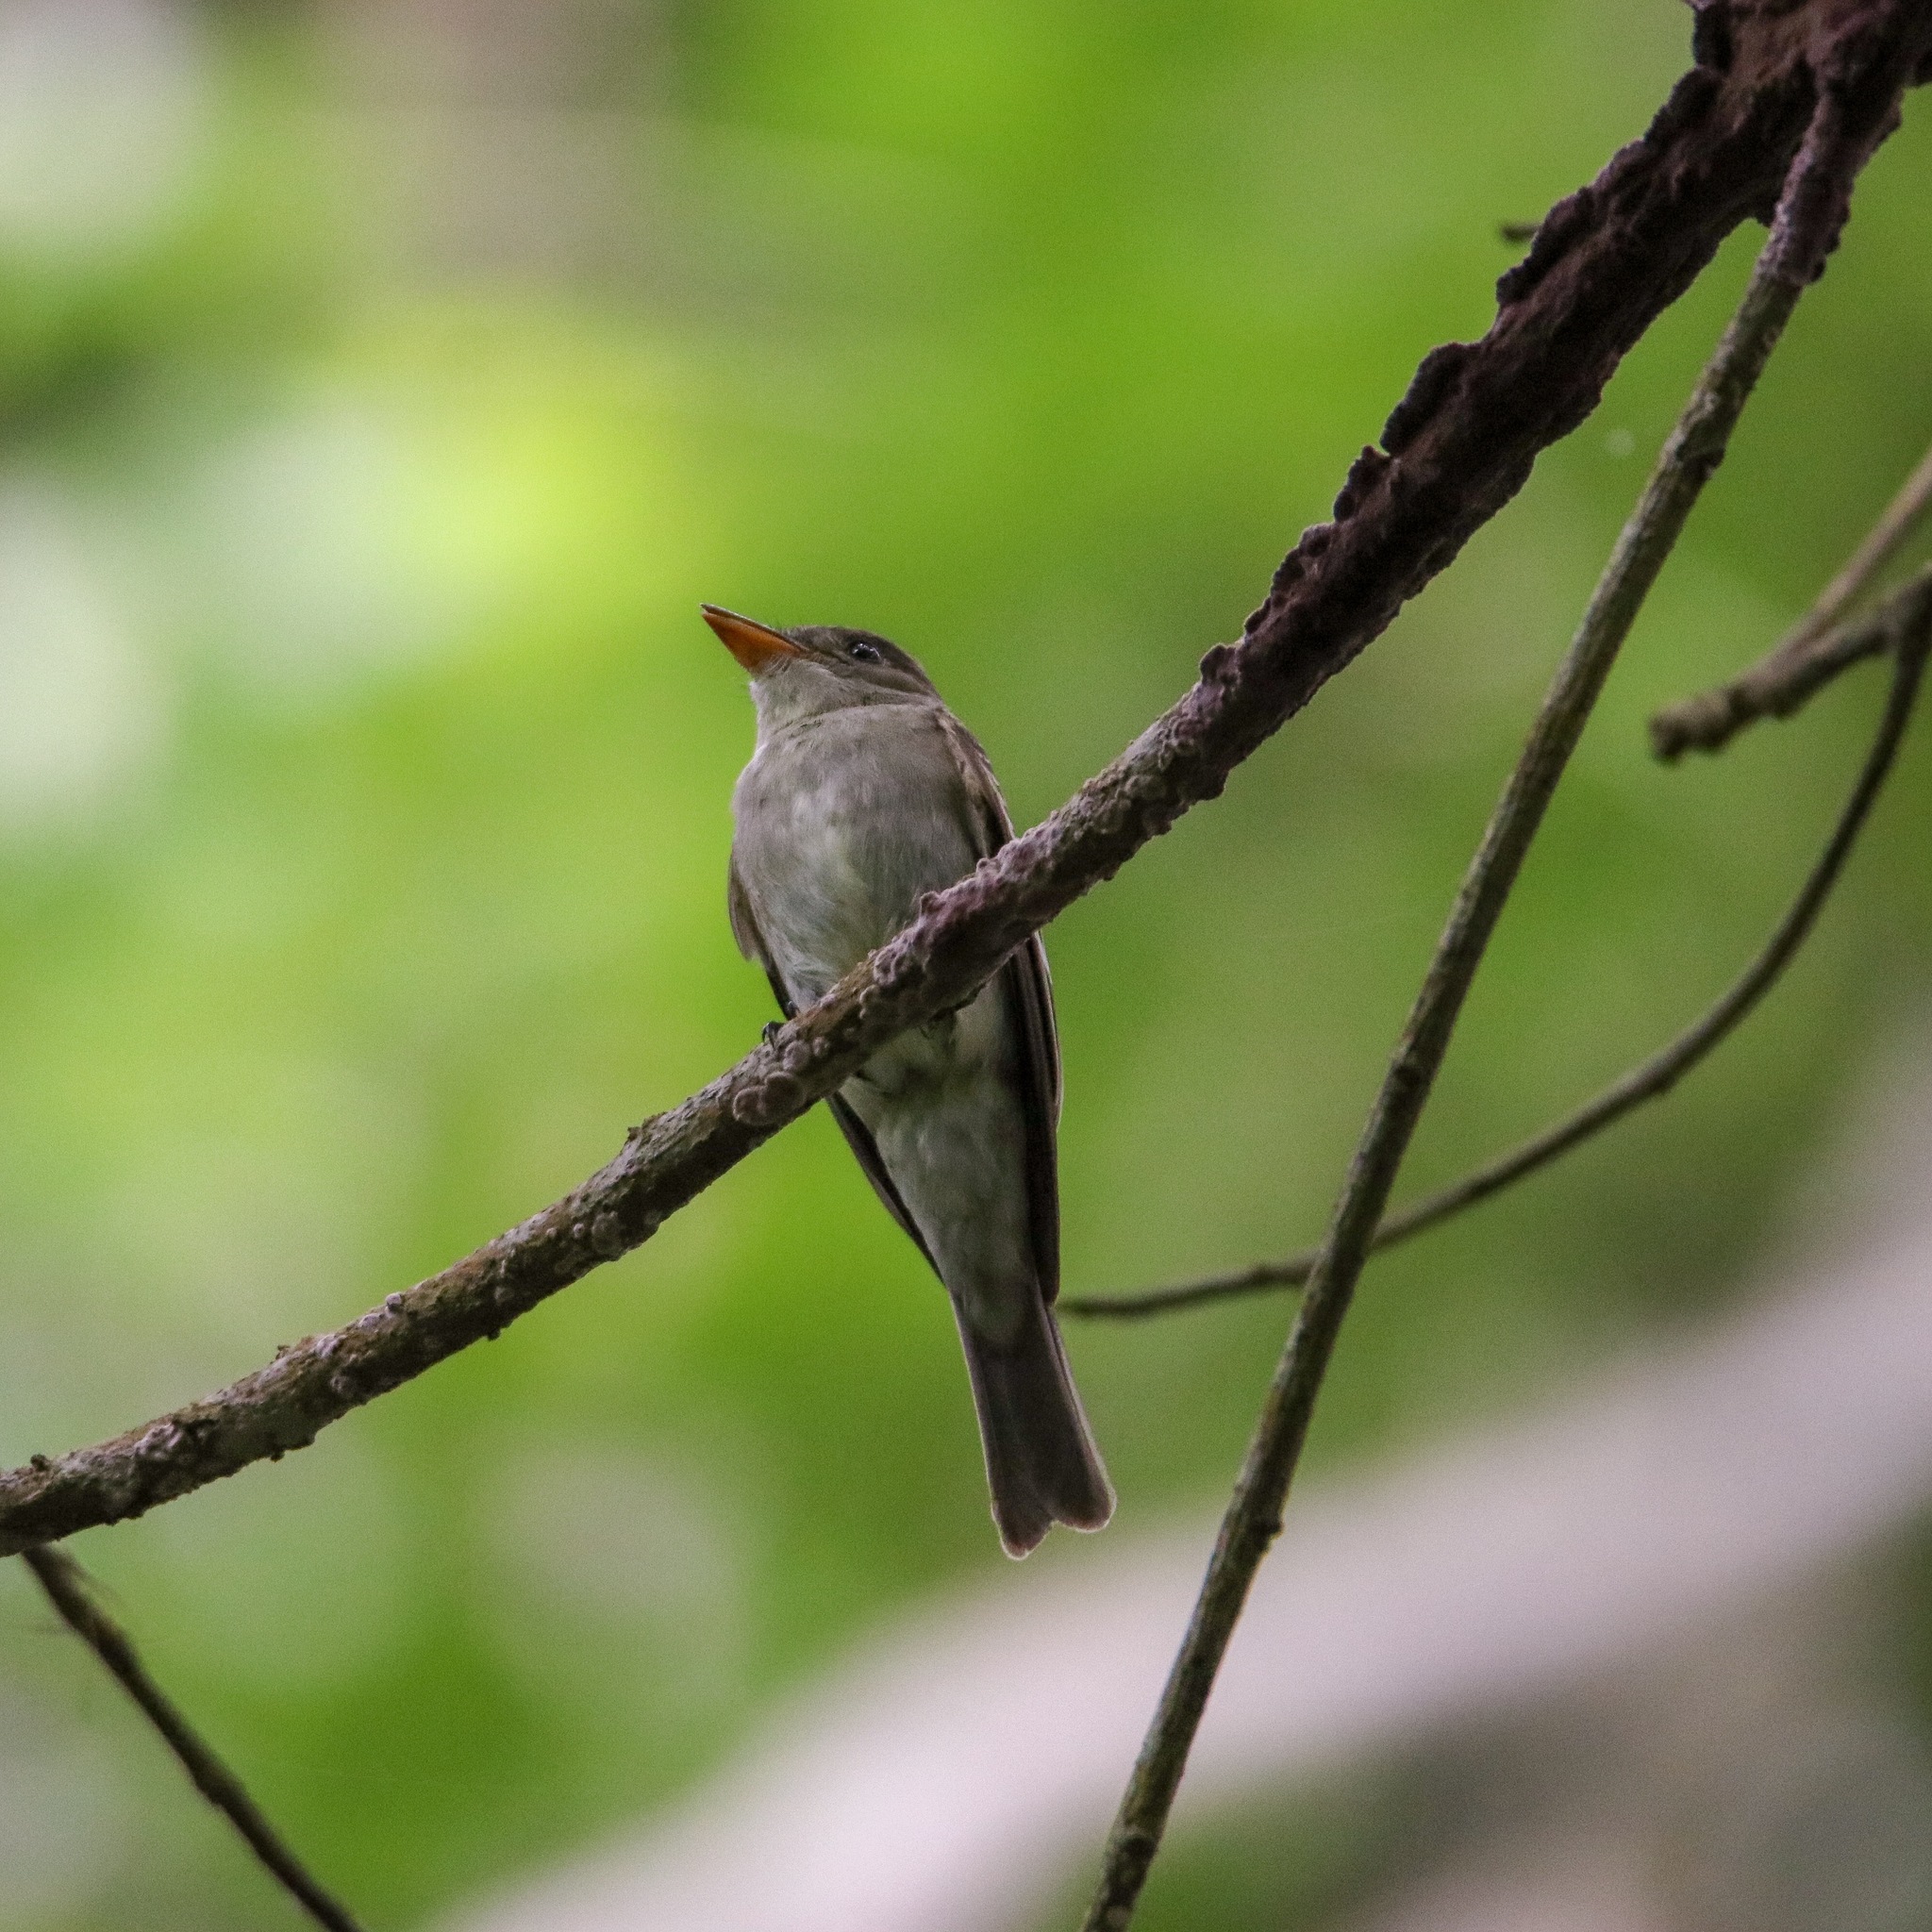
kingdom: Animalia
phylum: Chordata
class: Aves
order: Passeriformes
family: Tyrannidae
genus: Contopus
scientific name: Contopus virens
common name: Eastern wood-pewee
